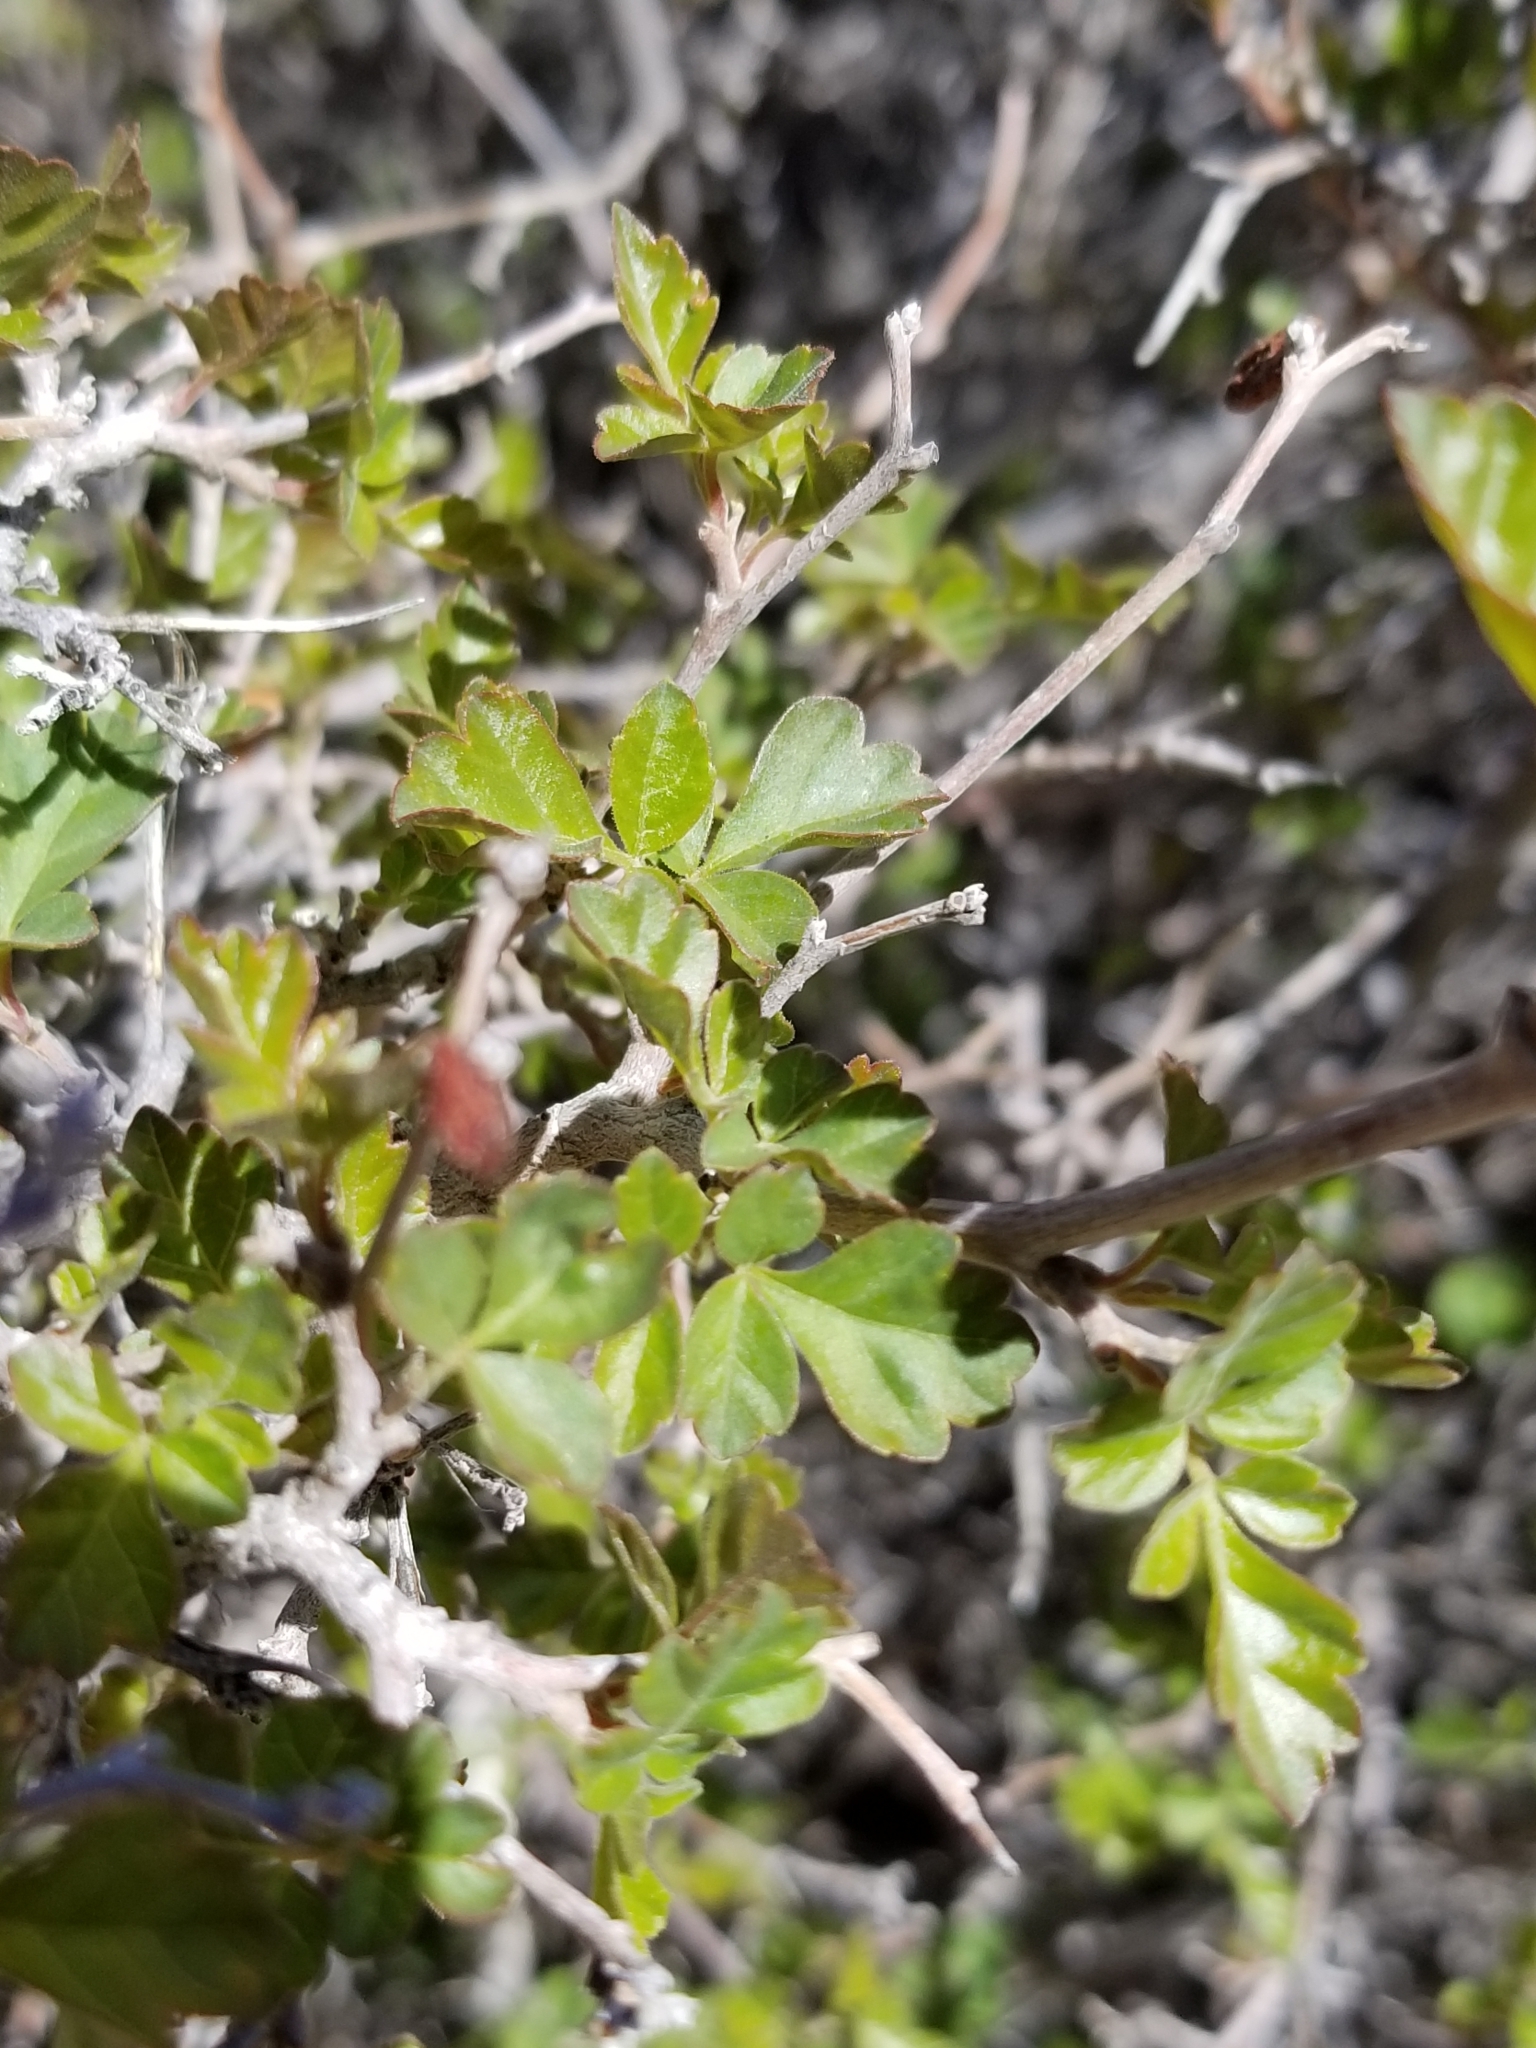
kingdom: Plantae
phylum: Tracheophyta
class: Magnoliopsida
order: Sapindales
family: Anacardiaceae
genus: Rhus
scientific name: Rhus aromatica
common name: Aromatic sumac
